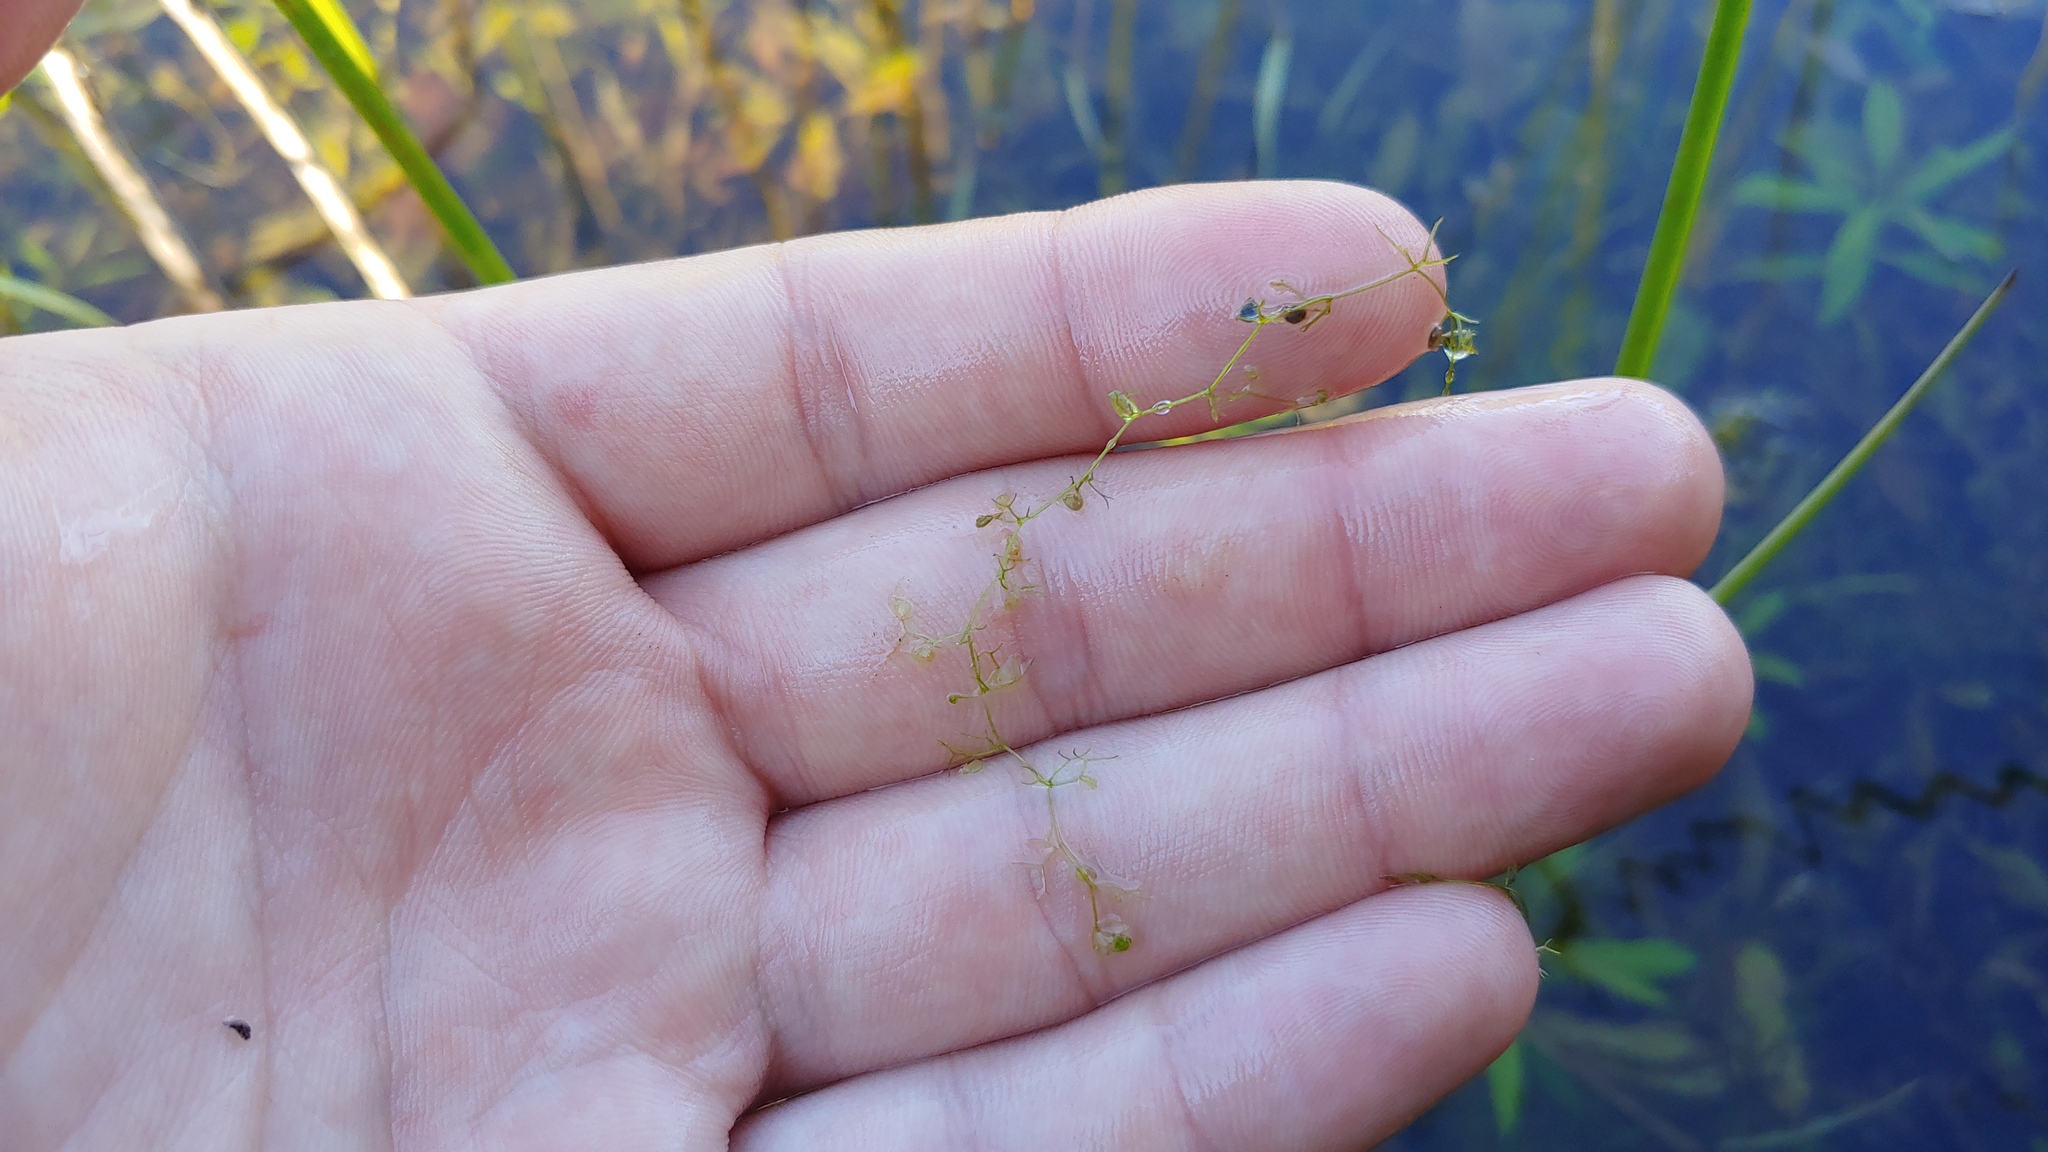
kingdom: Plantae
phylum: Tracheophyta
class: Magnoliopsida
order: Lamiales
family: Lentibulariaceae
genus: Utricularia
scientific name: Utricularia minor
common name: Lesser bladderwort
